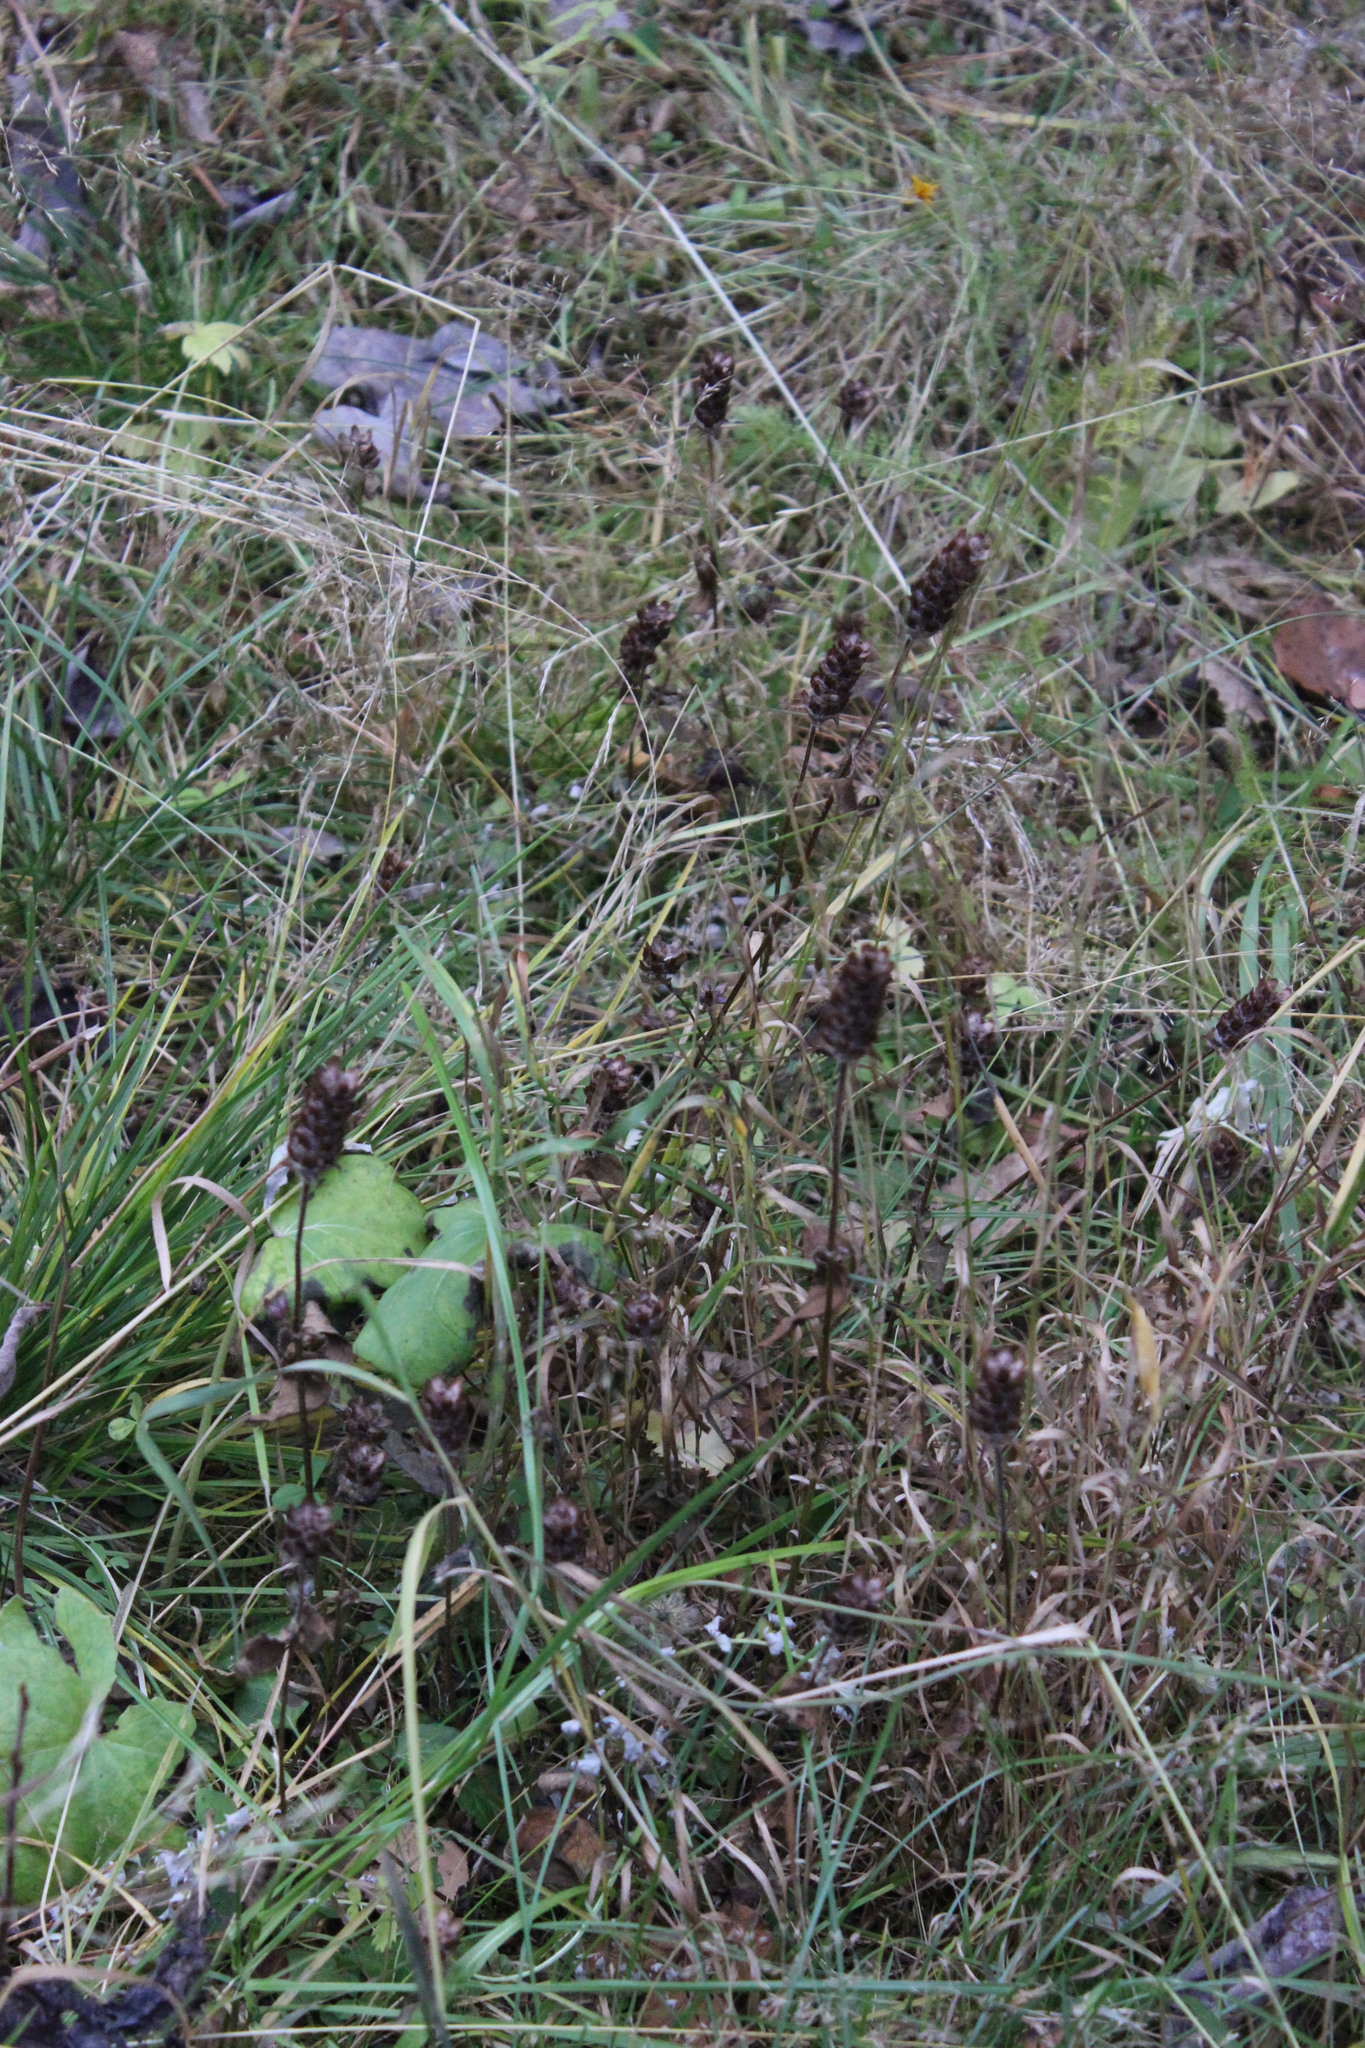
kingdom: Plantae
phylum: Tracheophyta
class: Magnoliopsida
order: Lamiales
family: Lamiaceae
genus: Prunella
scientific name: Prunella vulgaris
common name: Heal-all
